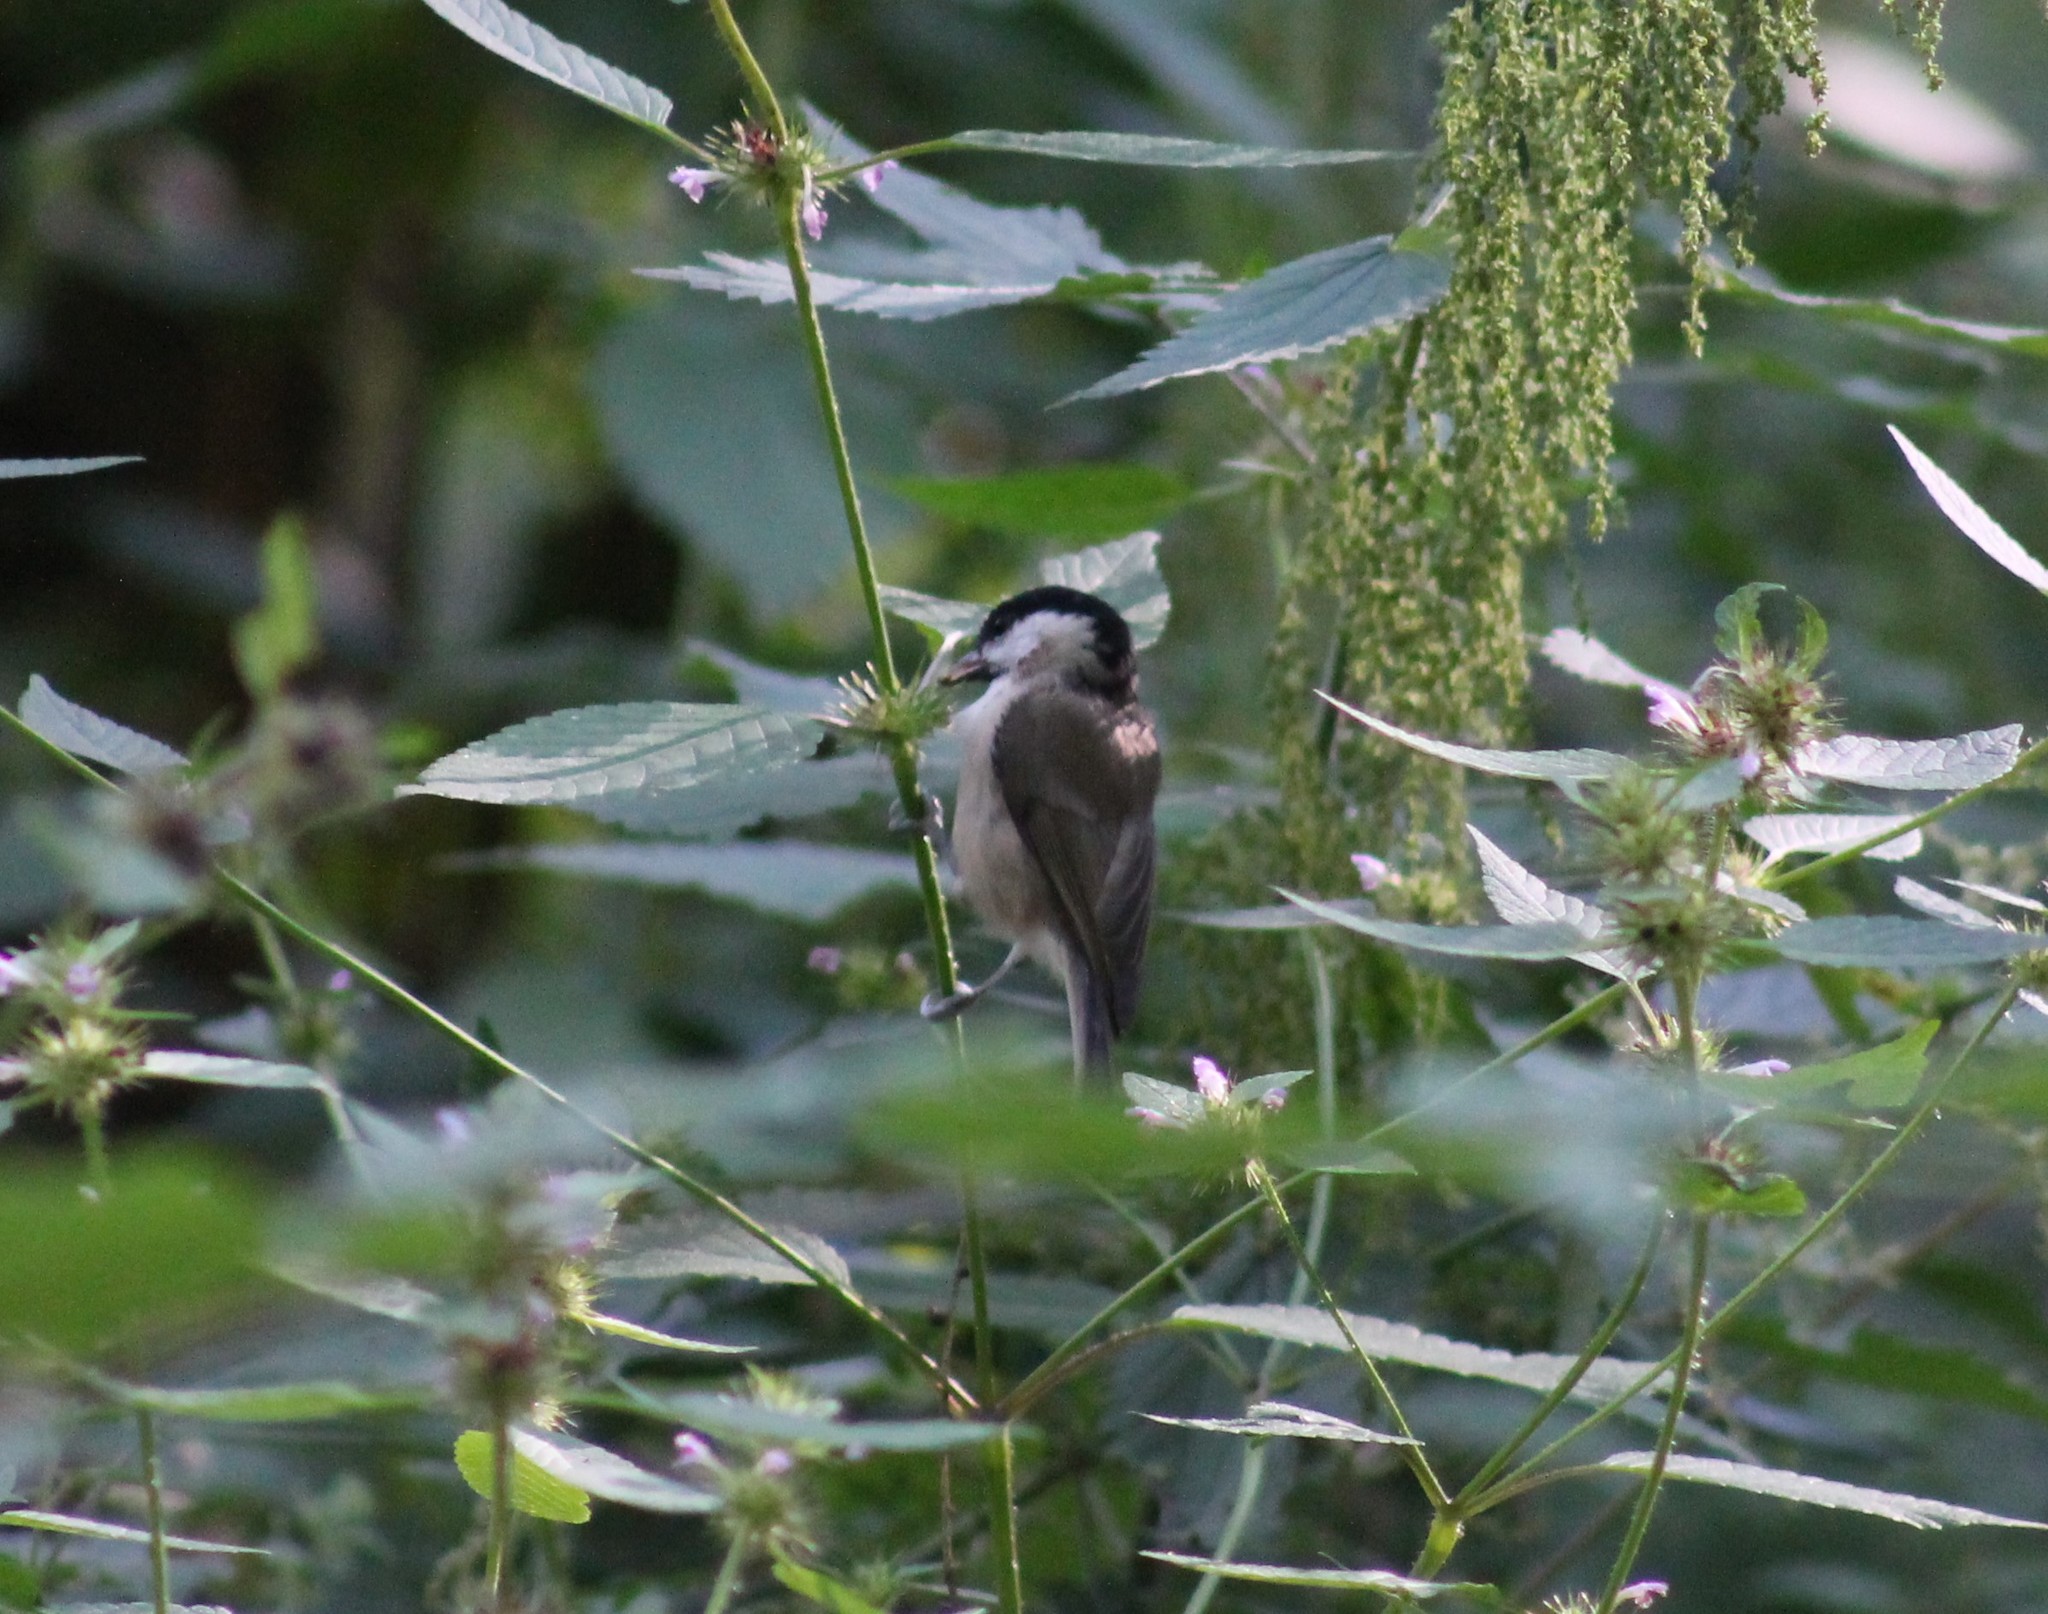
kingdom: Animalia
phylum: Chordata
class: Aves
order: Passeriformes
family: Paridae
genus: Poecile
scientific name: Poecile palustris
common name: Marsh tit
